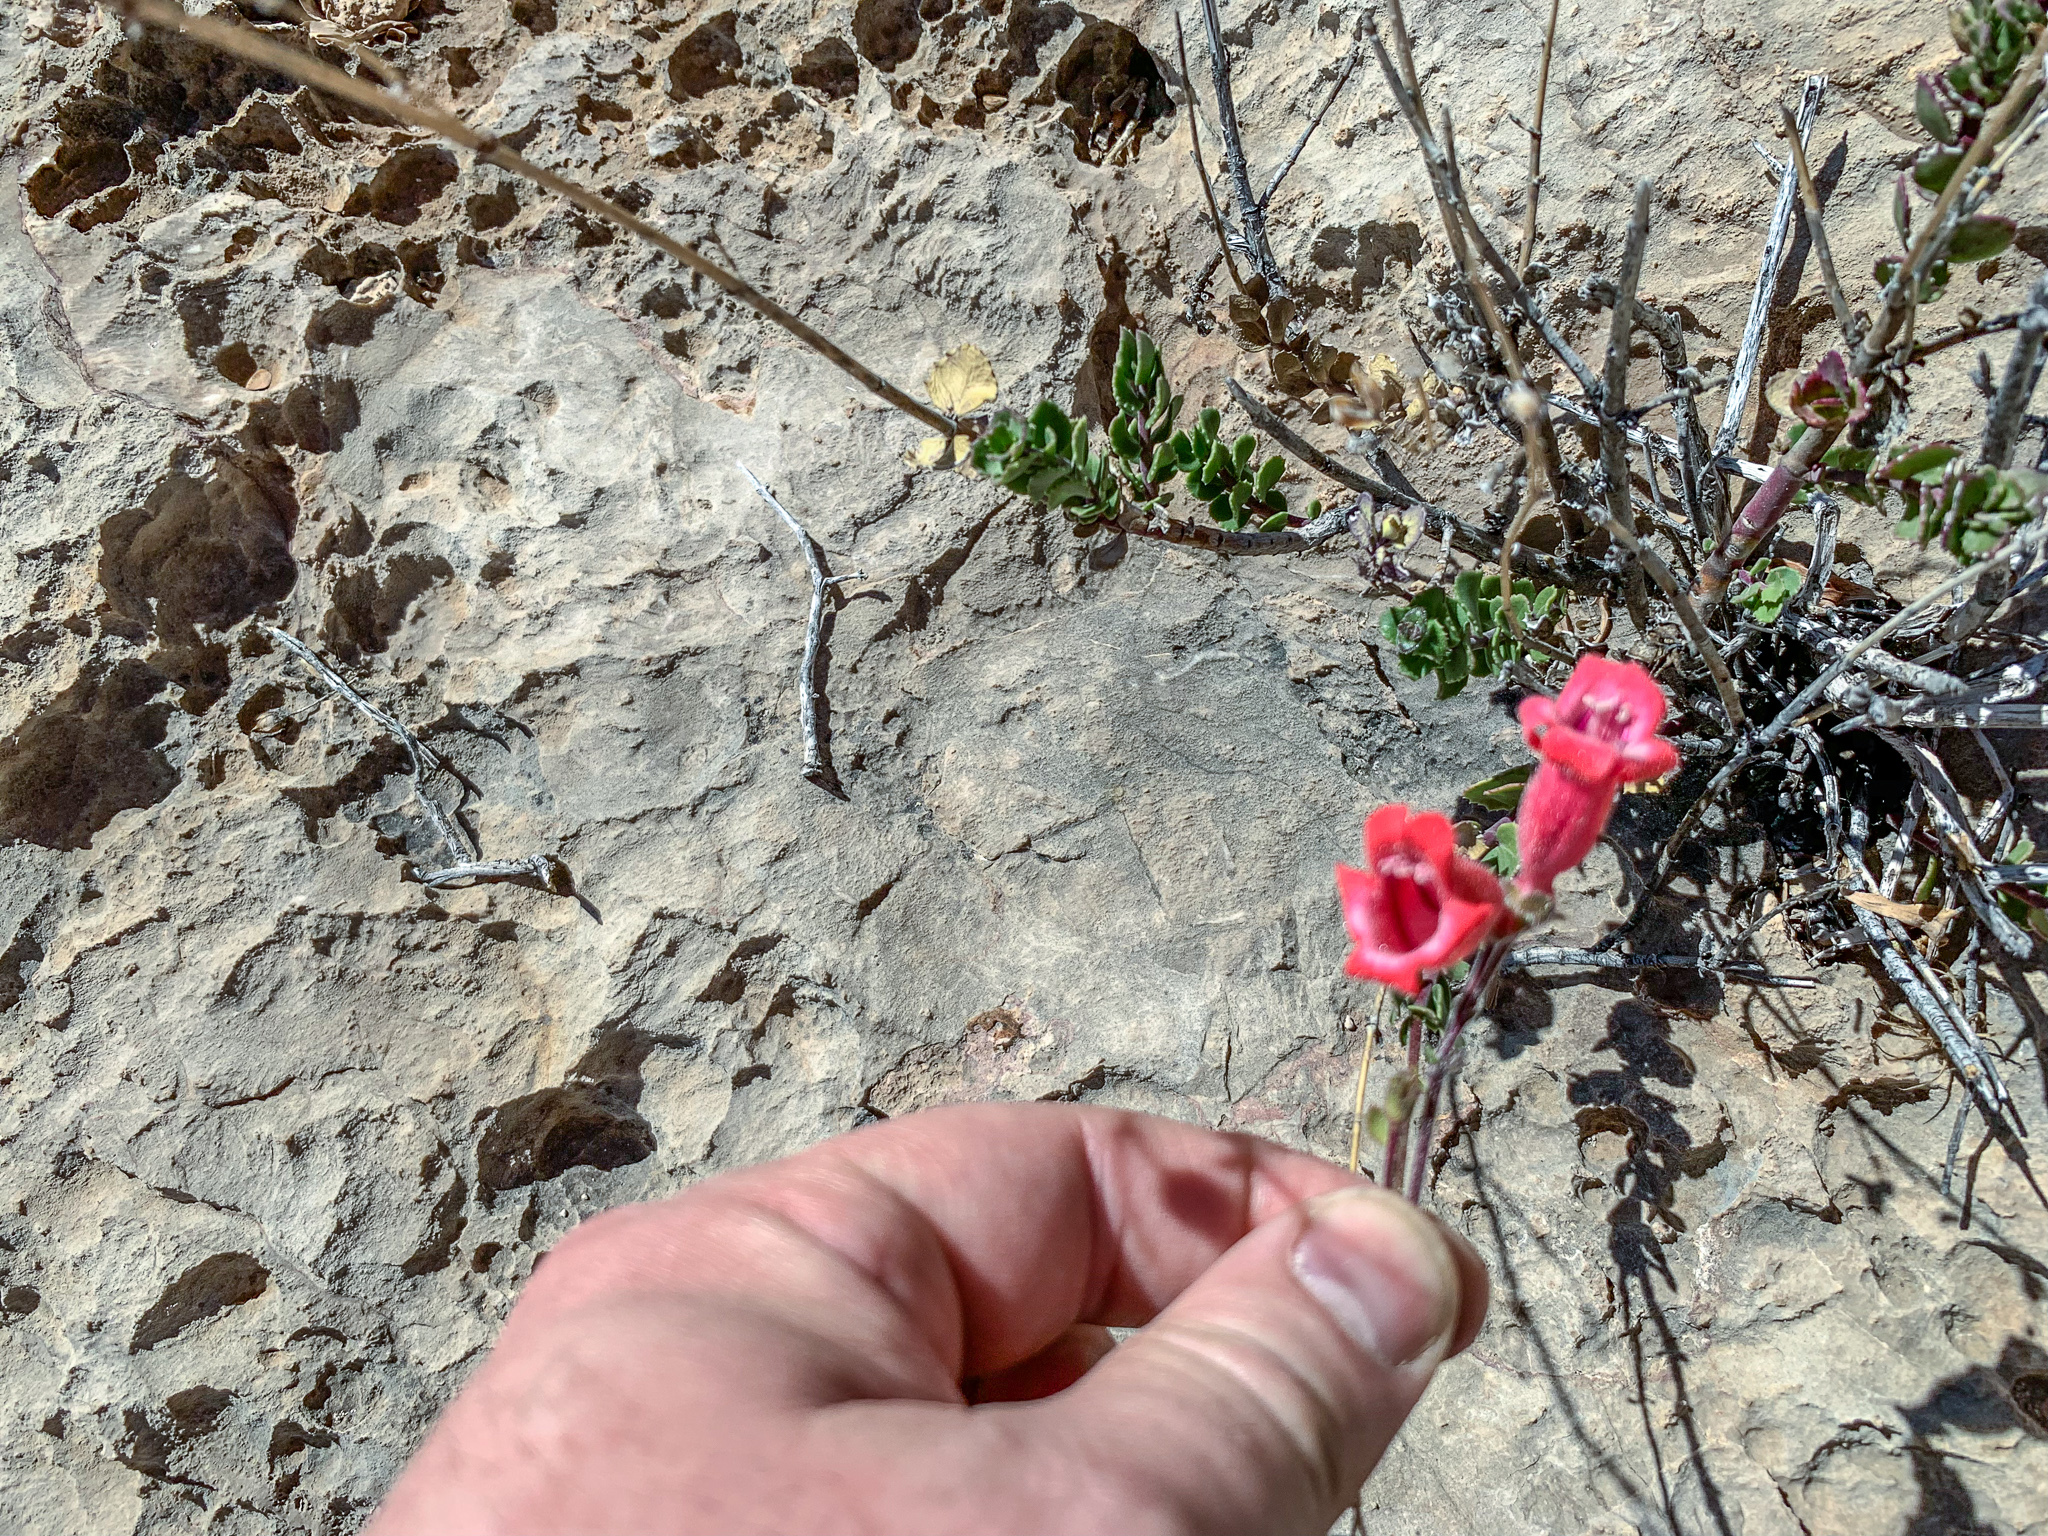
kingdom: Plantae
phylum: Tracheophyta
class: Magnoliopsida
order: Lamiales
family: Plantaginaceae
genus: Penstemon
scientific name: Penstemon baccharifolius
